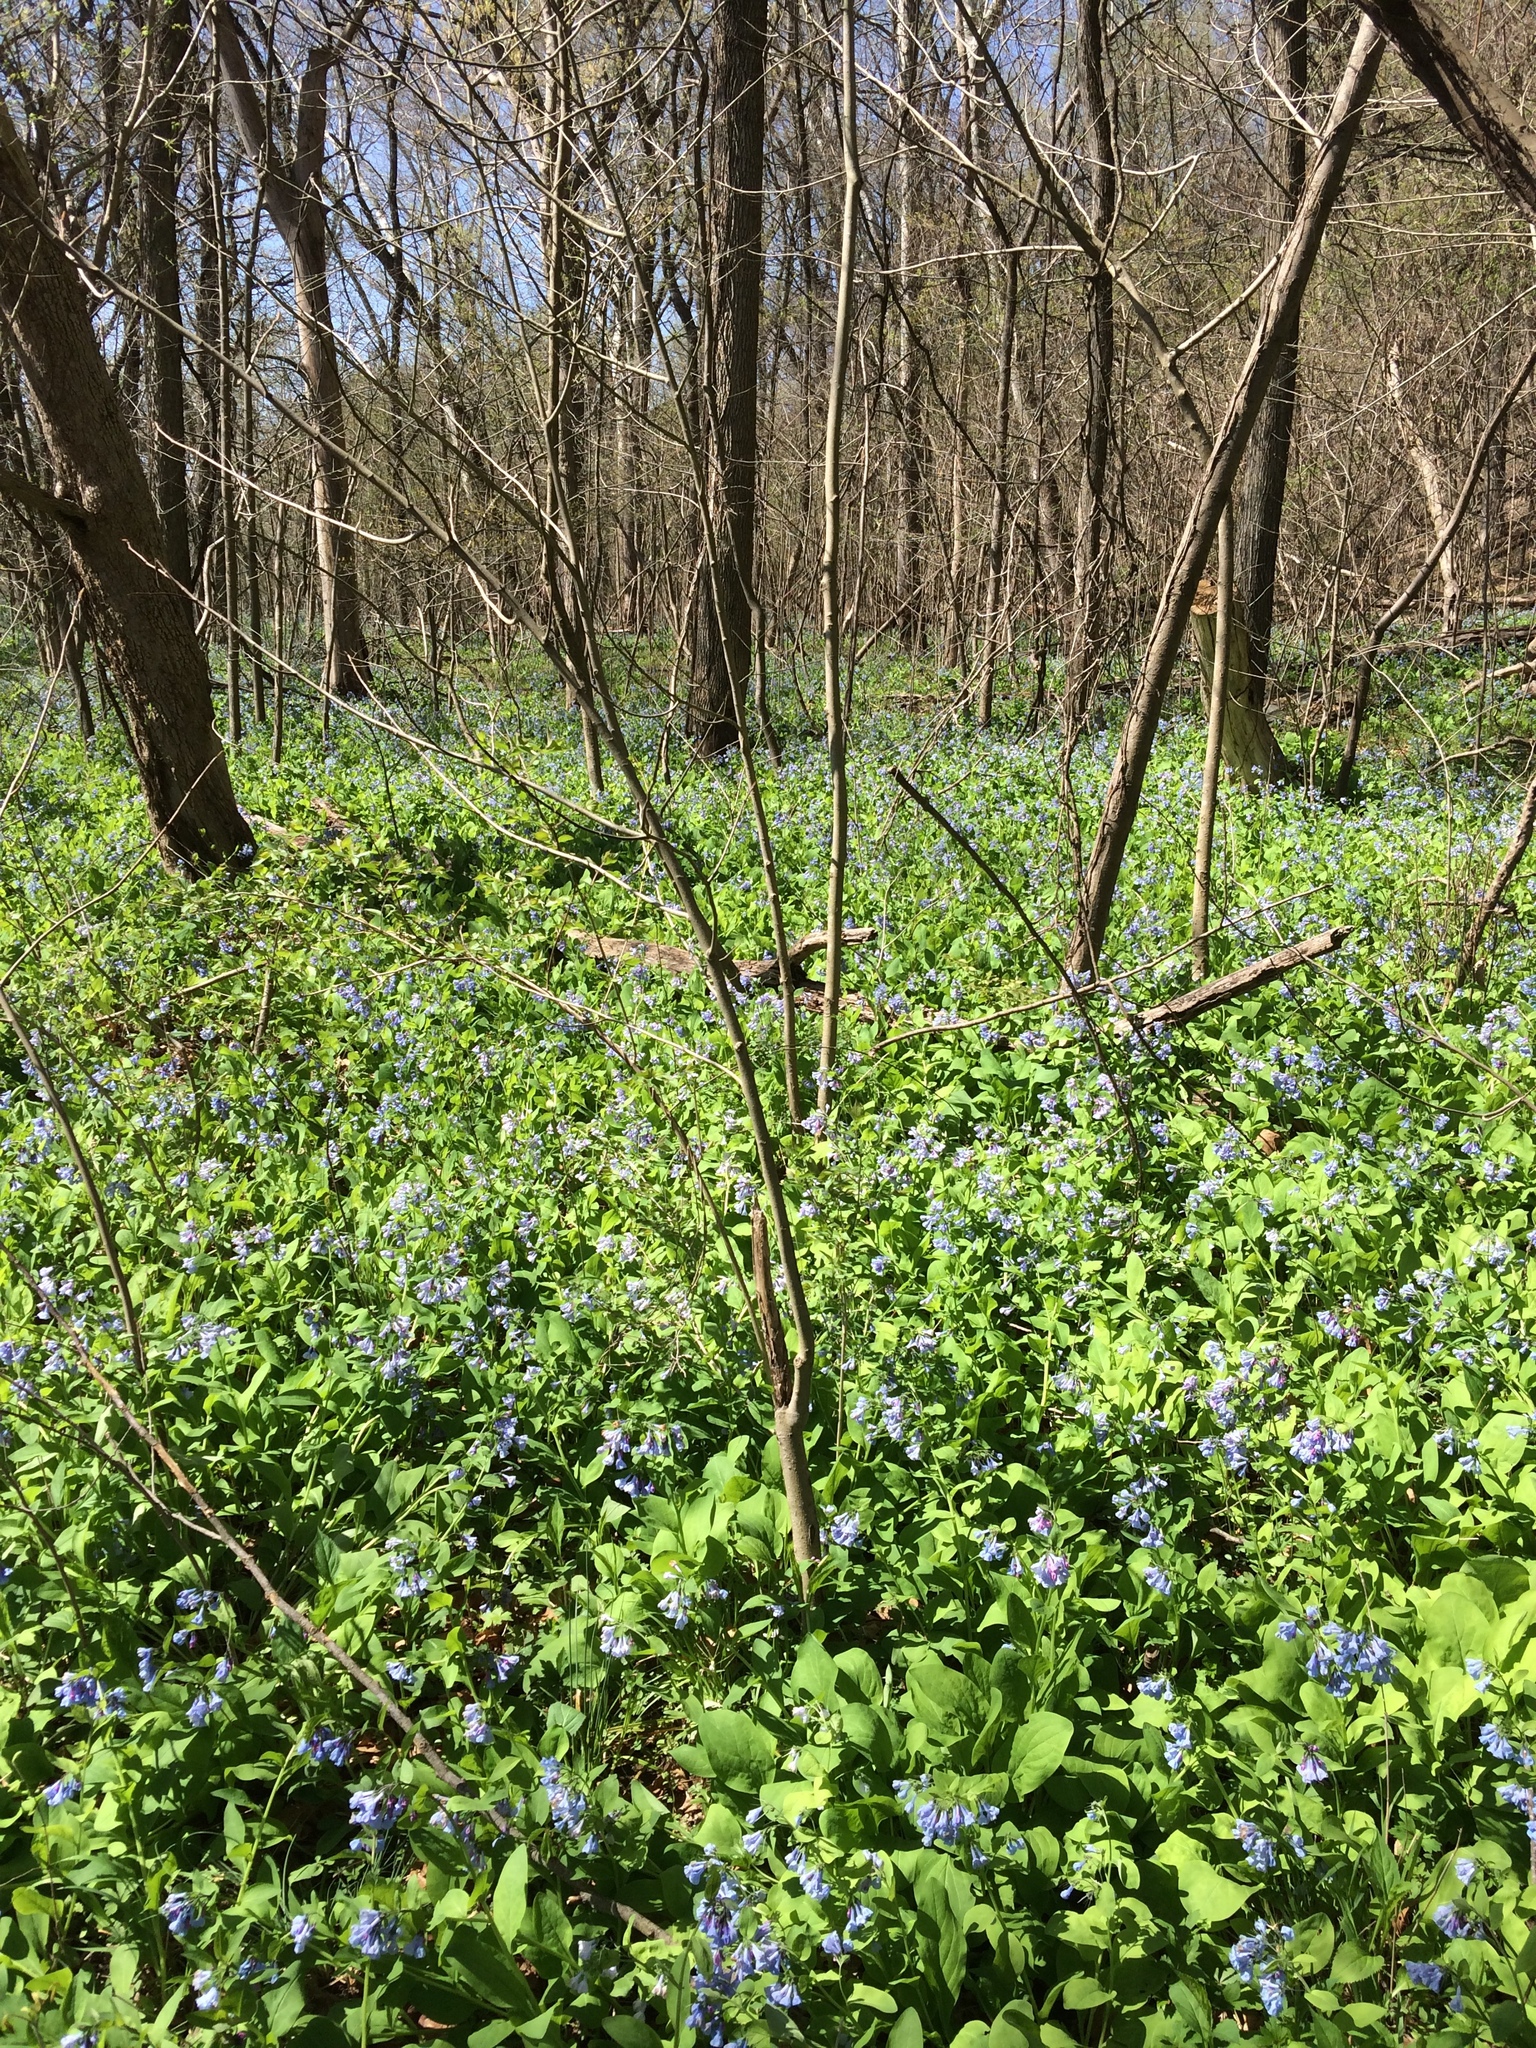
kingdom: Plantae
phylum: Tracheophyta
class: Magnoliopsida
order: Boraginales
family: Boraginaceae
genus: Mertensia
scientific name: Mertensia virginica
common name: Virginia bluebells
